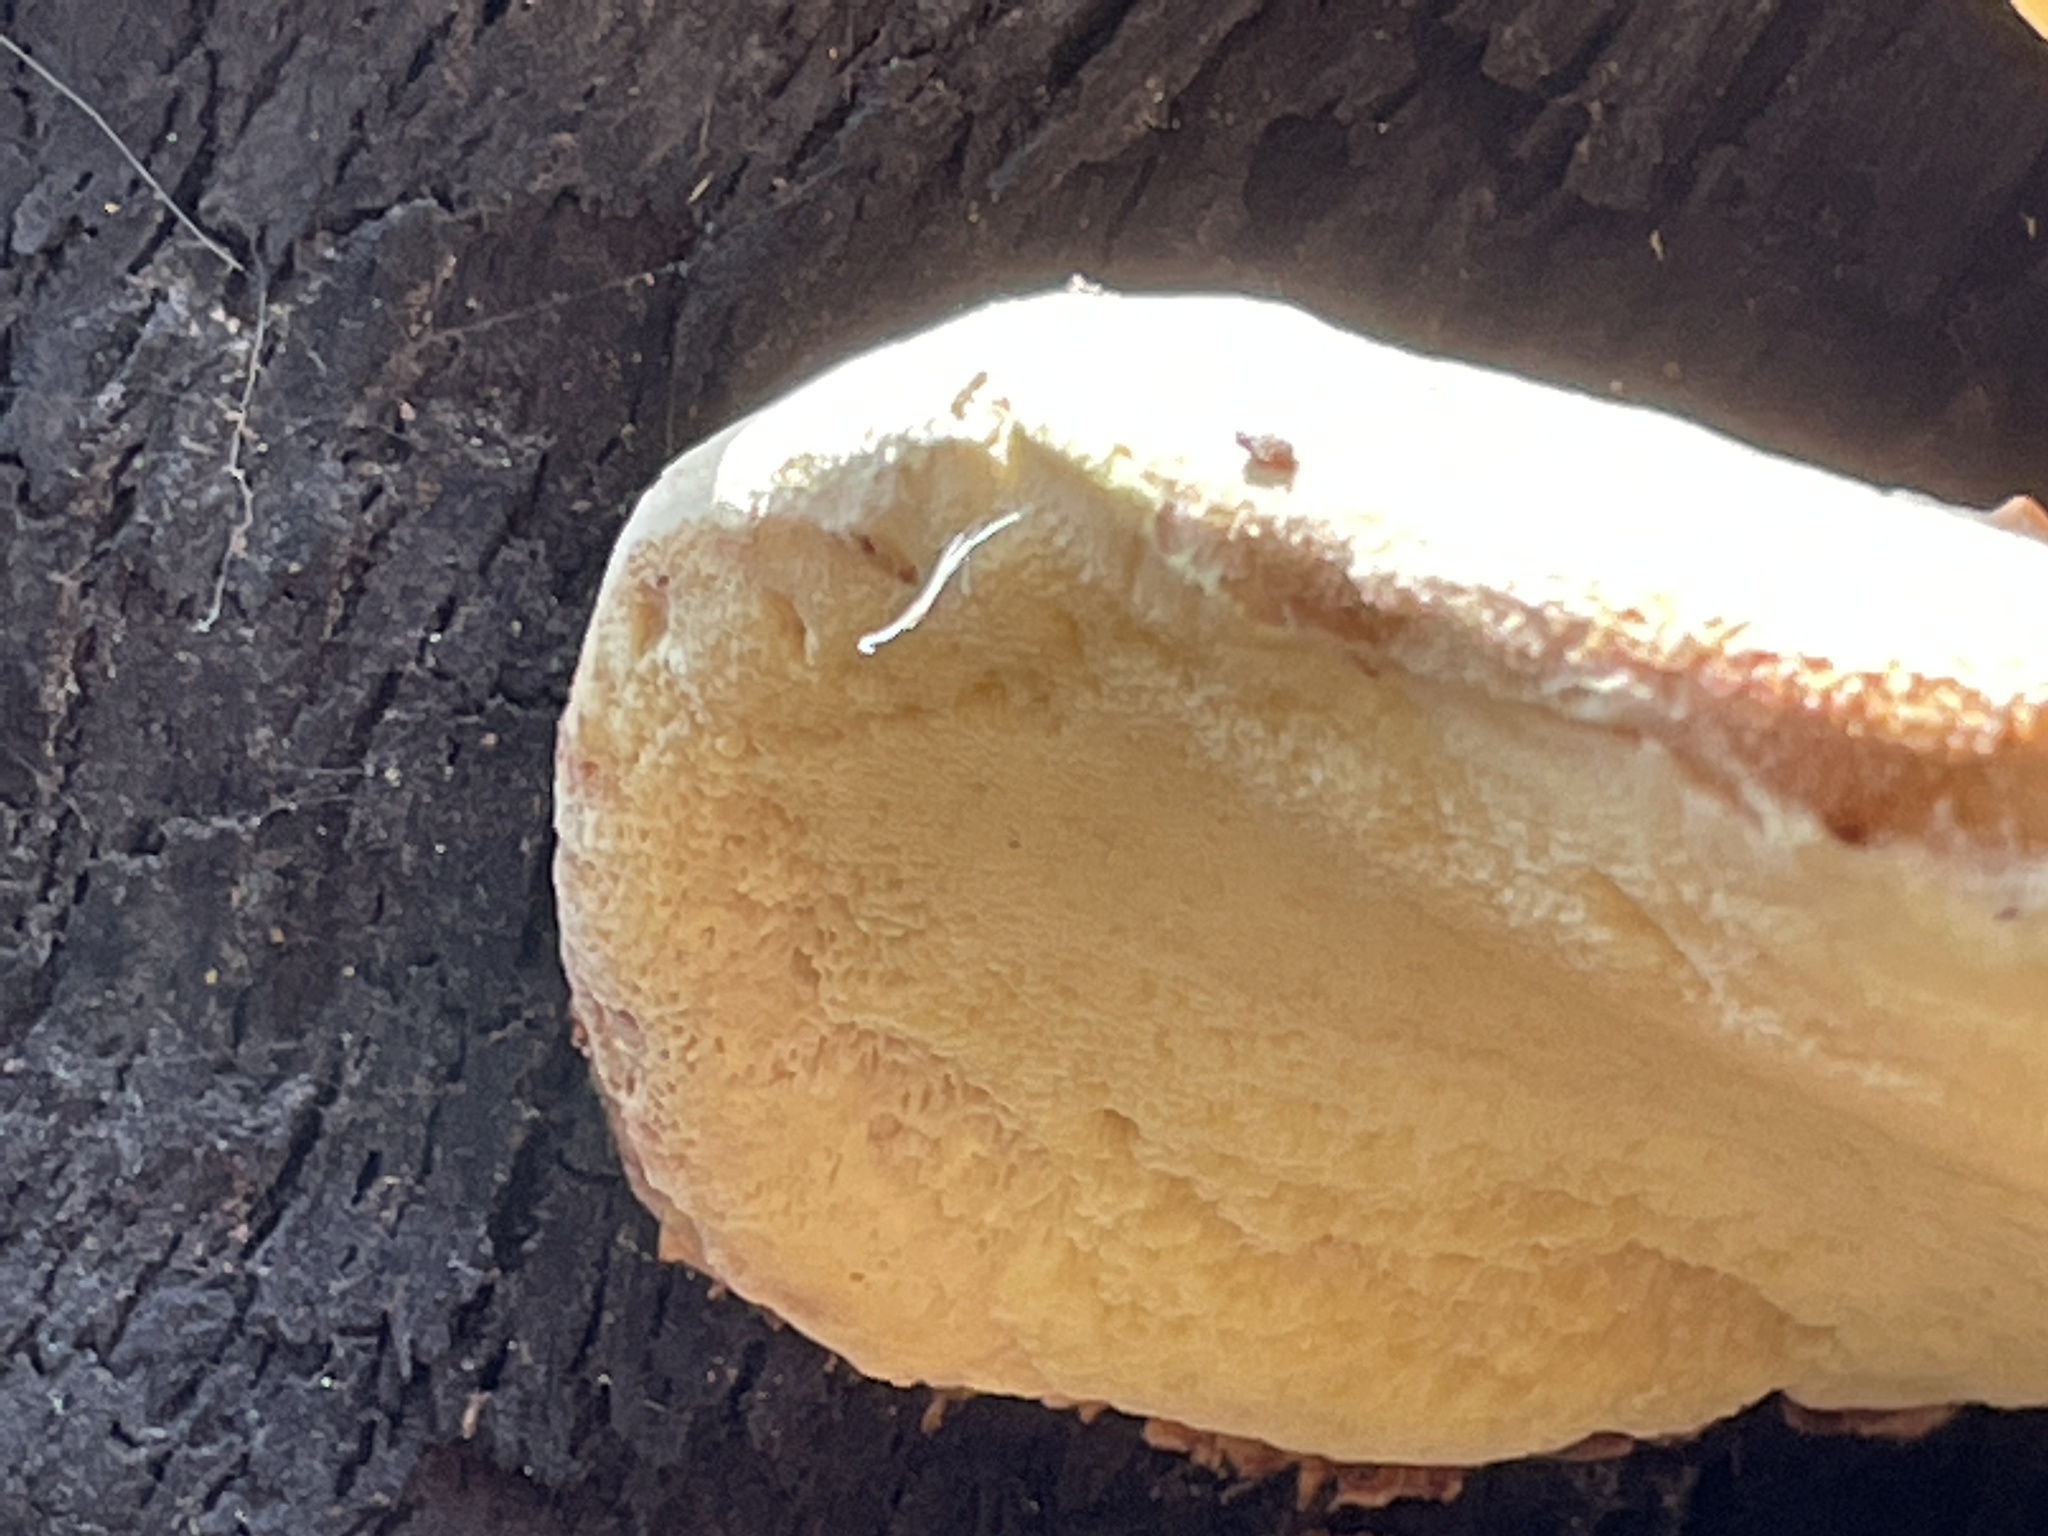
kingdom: Fungi
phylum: Basidiomycota
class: Agaricomycetes
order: Polyporales
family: Laetiporaceae
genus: Laetiporus
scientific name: Laetiporus gilbertsonii
